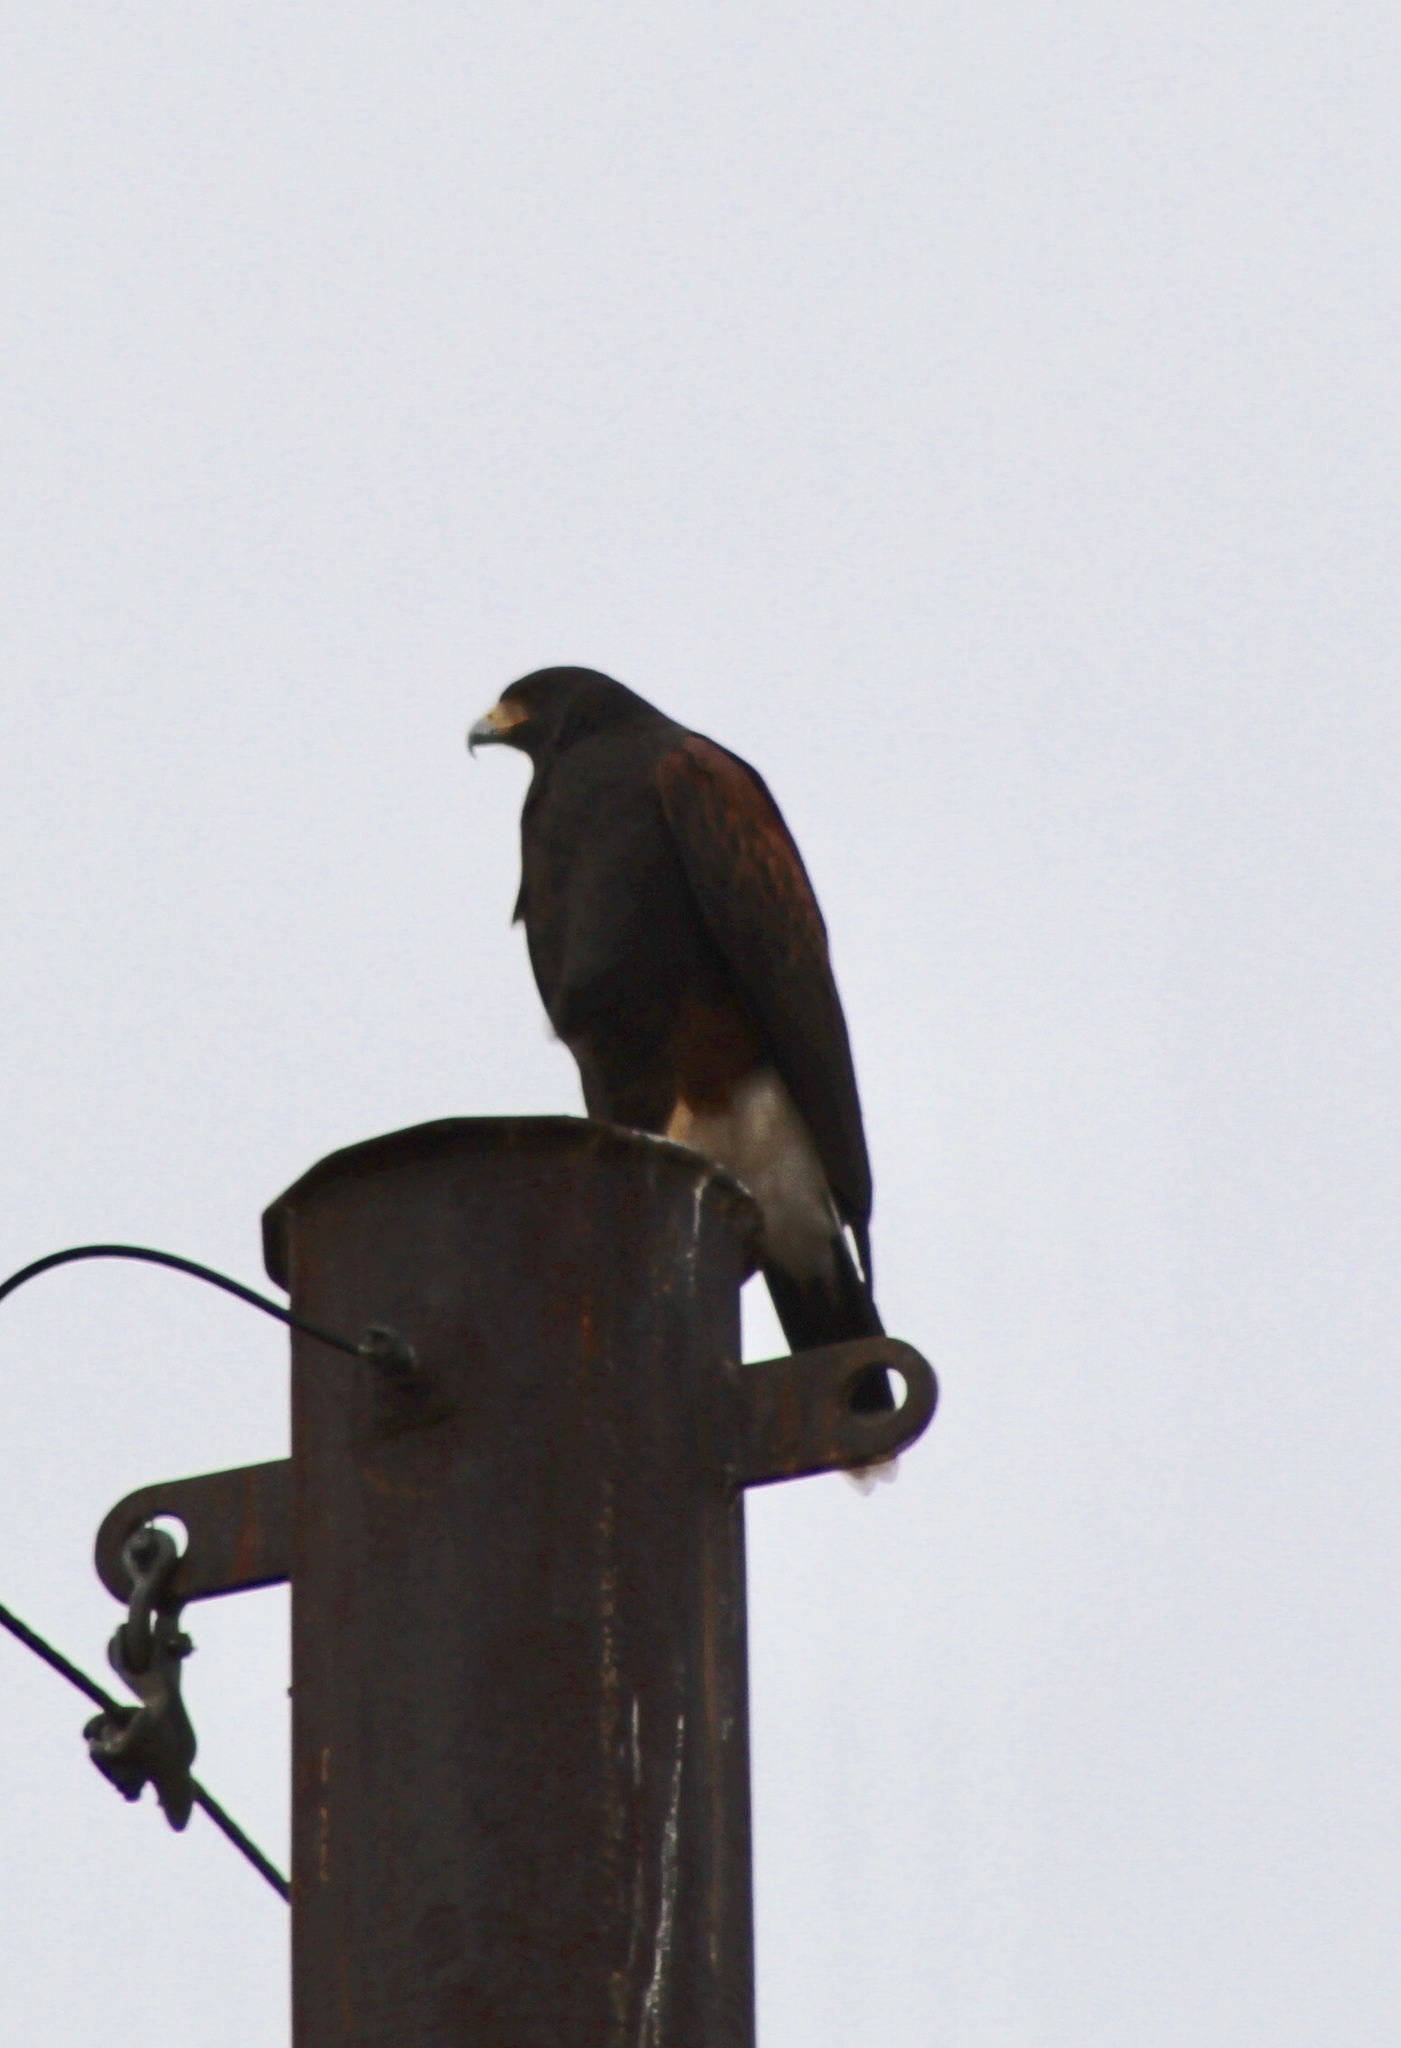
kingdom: Animalia
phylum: Chordata
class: Aves
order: Accipitriformes
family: Accipitridae
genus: Parabuteo
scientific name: Parabuteo unicinctus
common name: Harris's hawk
